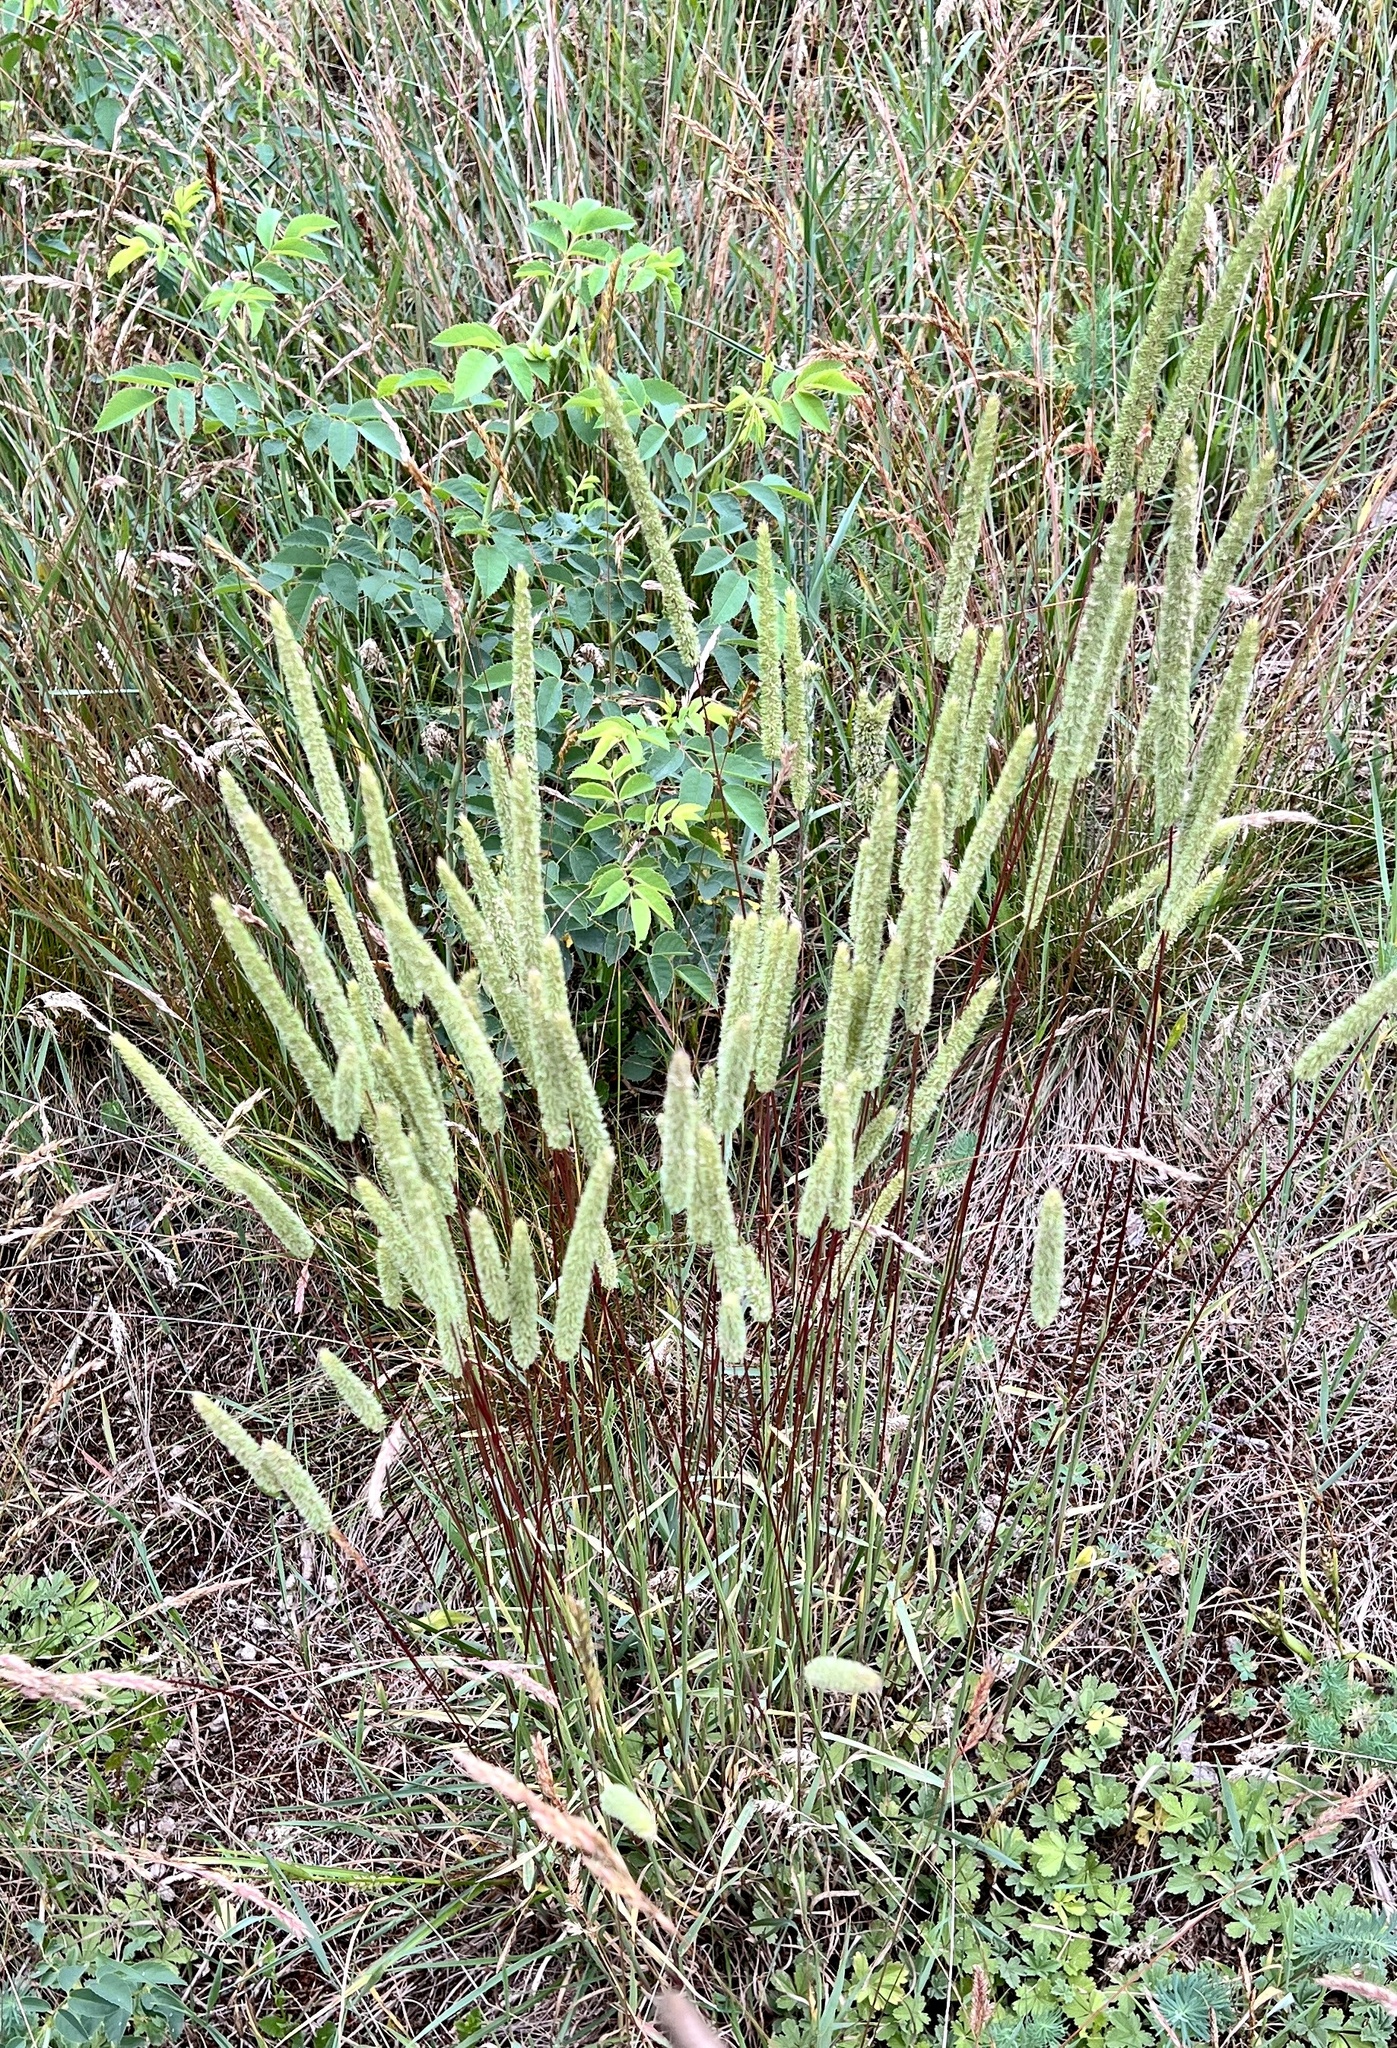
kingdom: Plantae
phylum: Tracheophyta
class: Liliopsida
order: Poales
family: Poaceae
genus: Phleum
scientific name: Phleum phleoides
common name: Purple-stem cat's-tail
